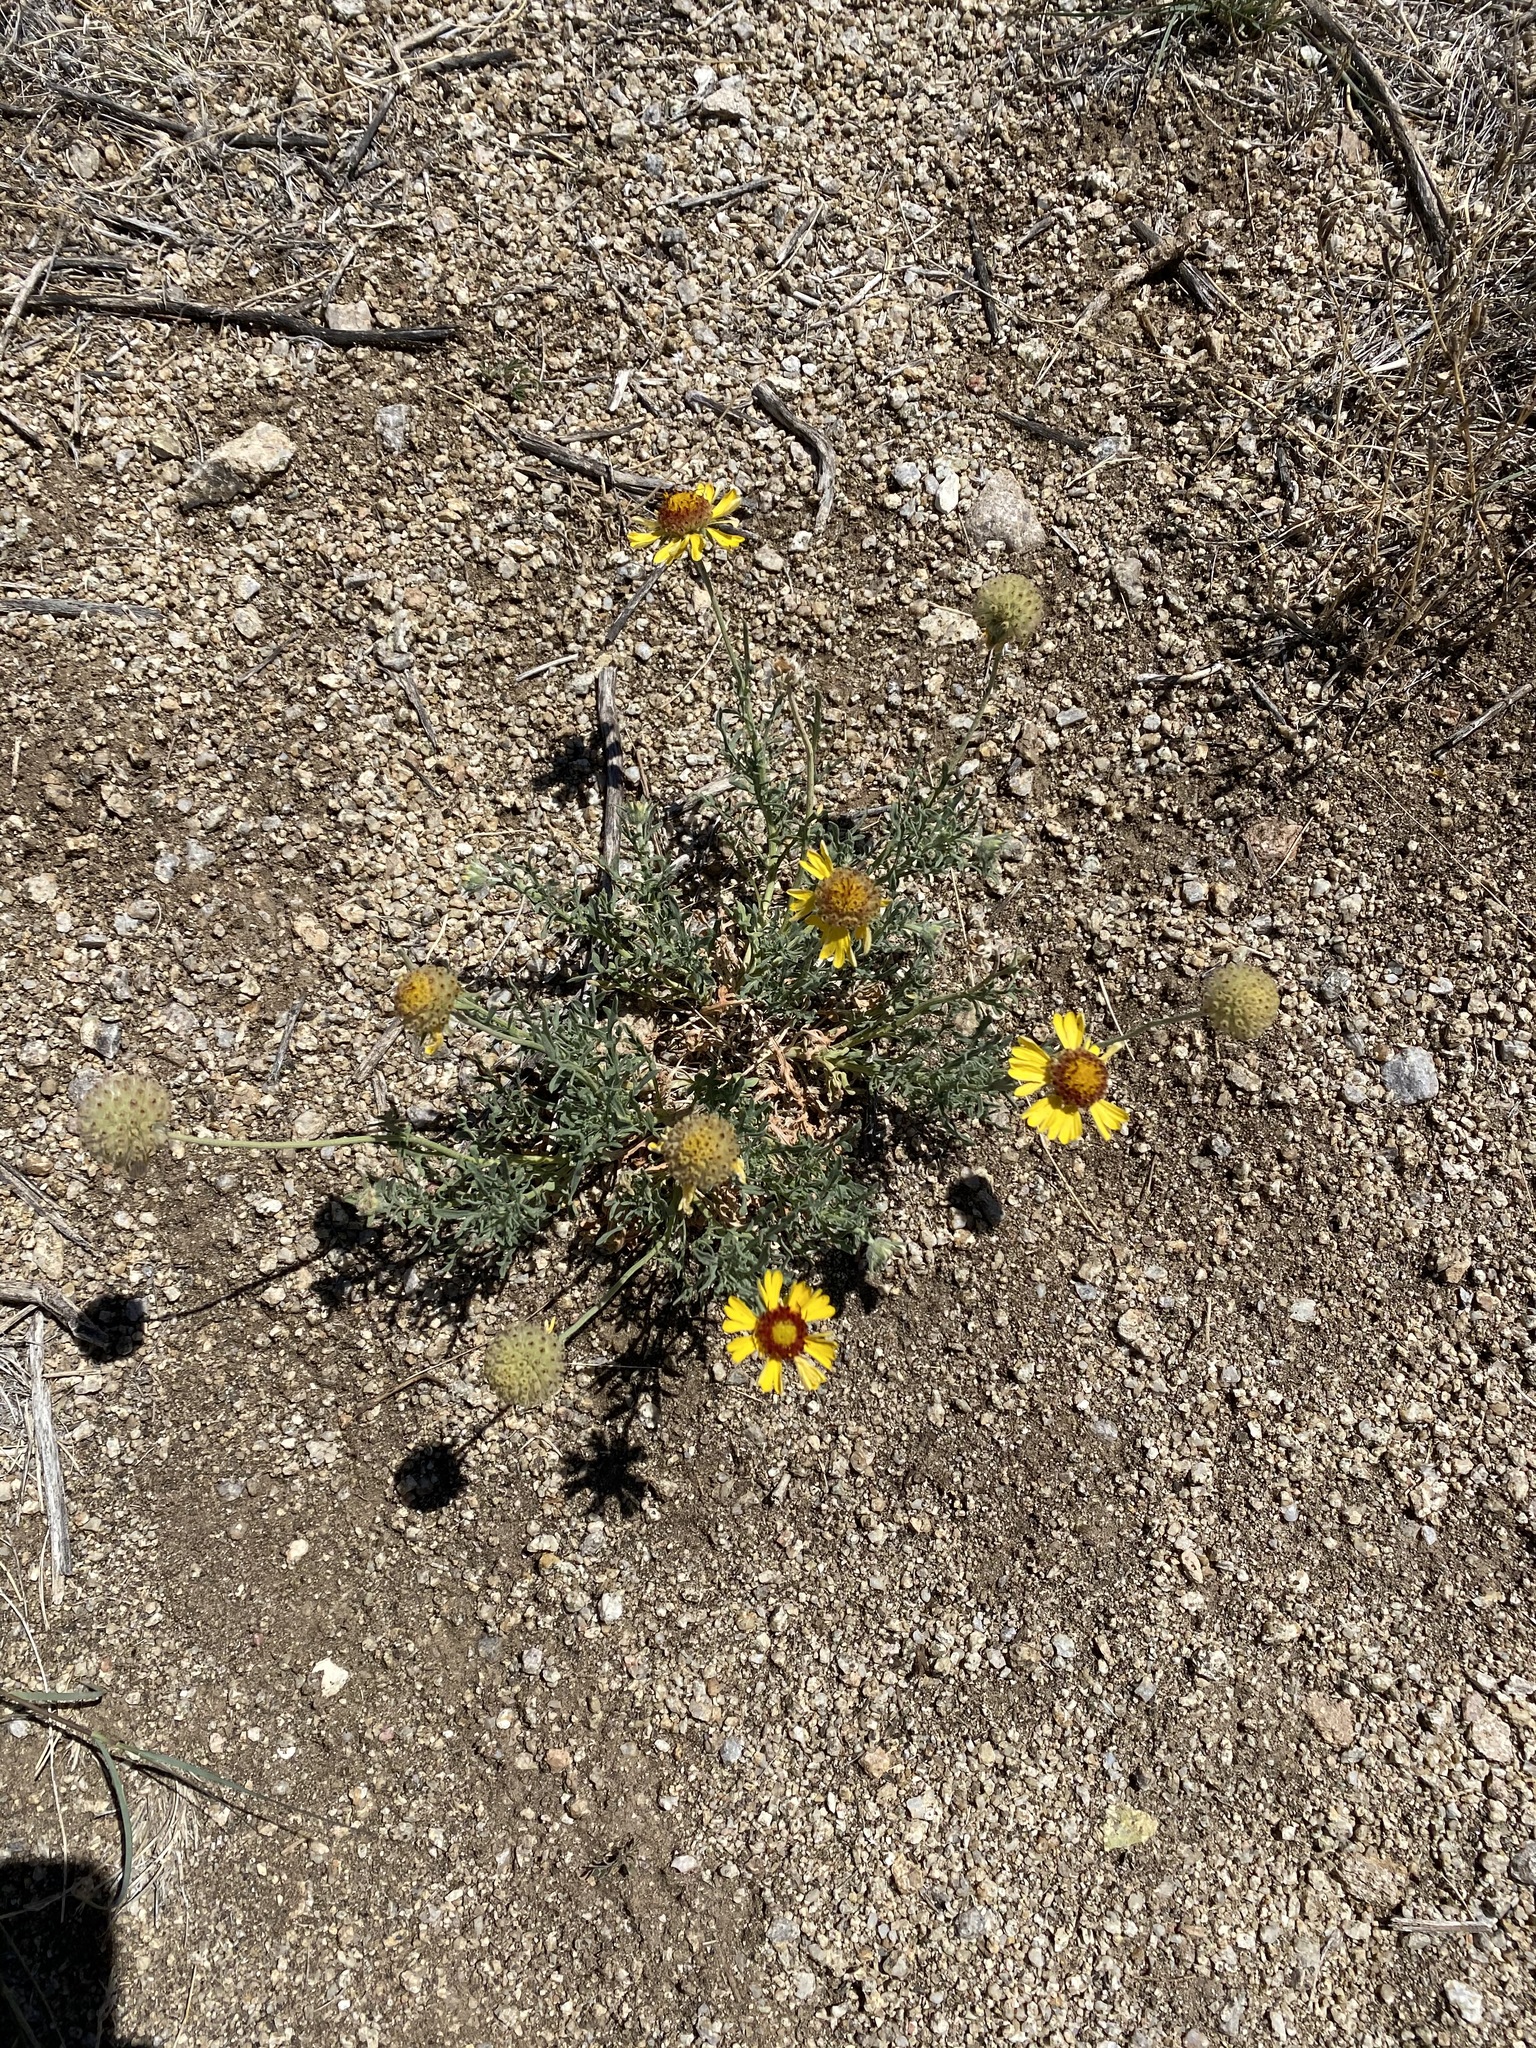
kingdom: Plantae
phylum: Tracheophyta
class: Magnoliopsida
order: Asterales
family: Asteraceae
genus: Gaillardia
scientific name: Gaillardia pinnatifida
